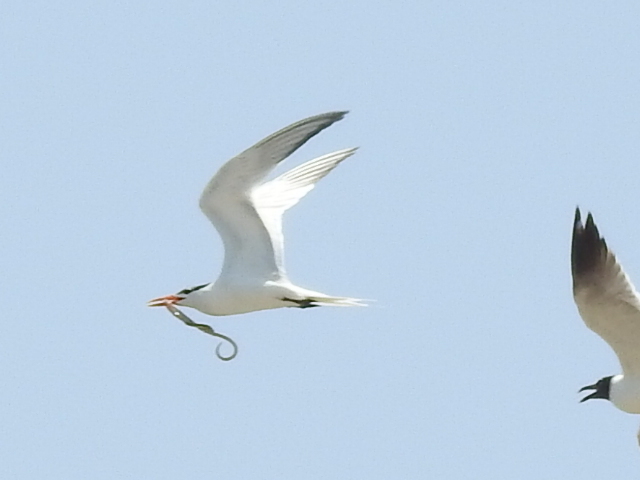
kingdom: Animalia
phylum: Chordata
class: Aves
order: Charadriiformes
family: Laridae
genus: Thalasseus
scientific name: Thalasseus maximus
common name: Royal tern
